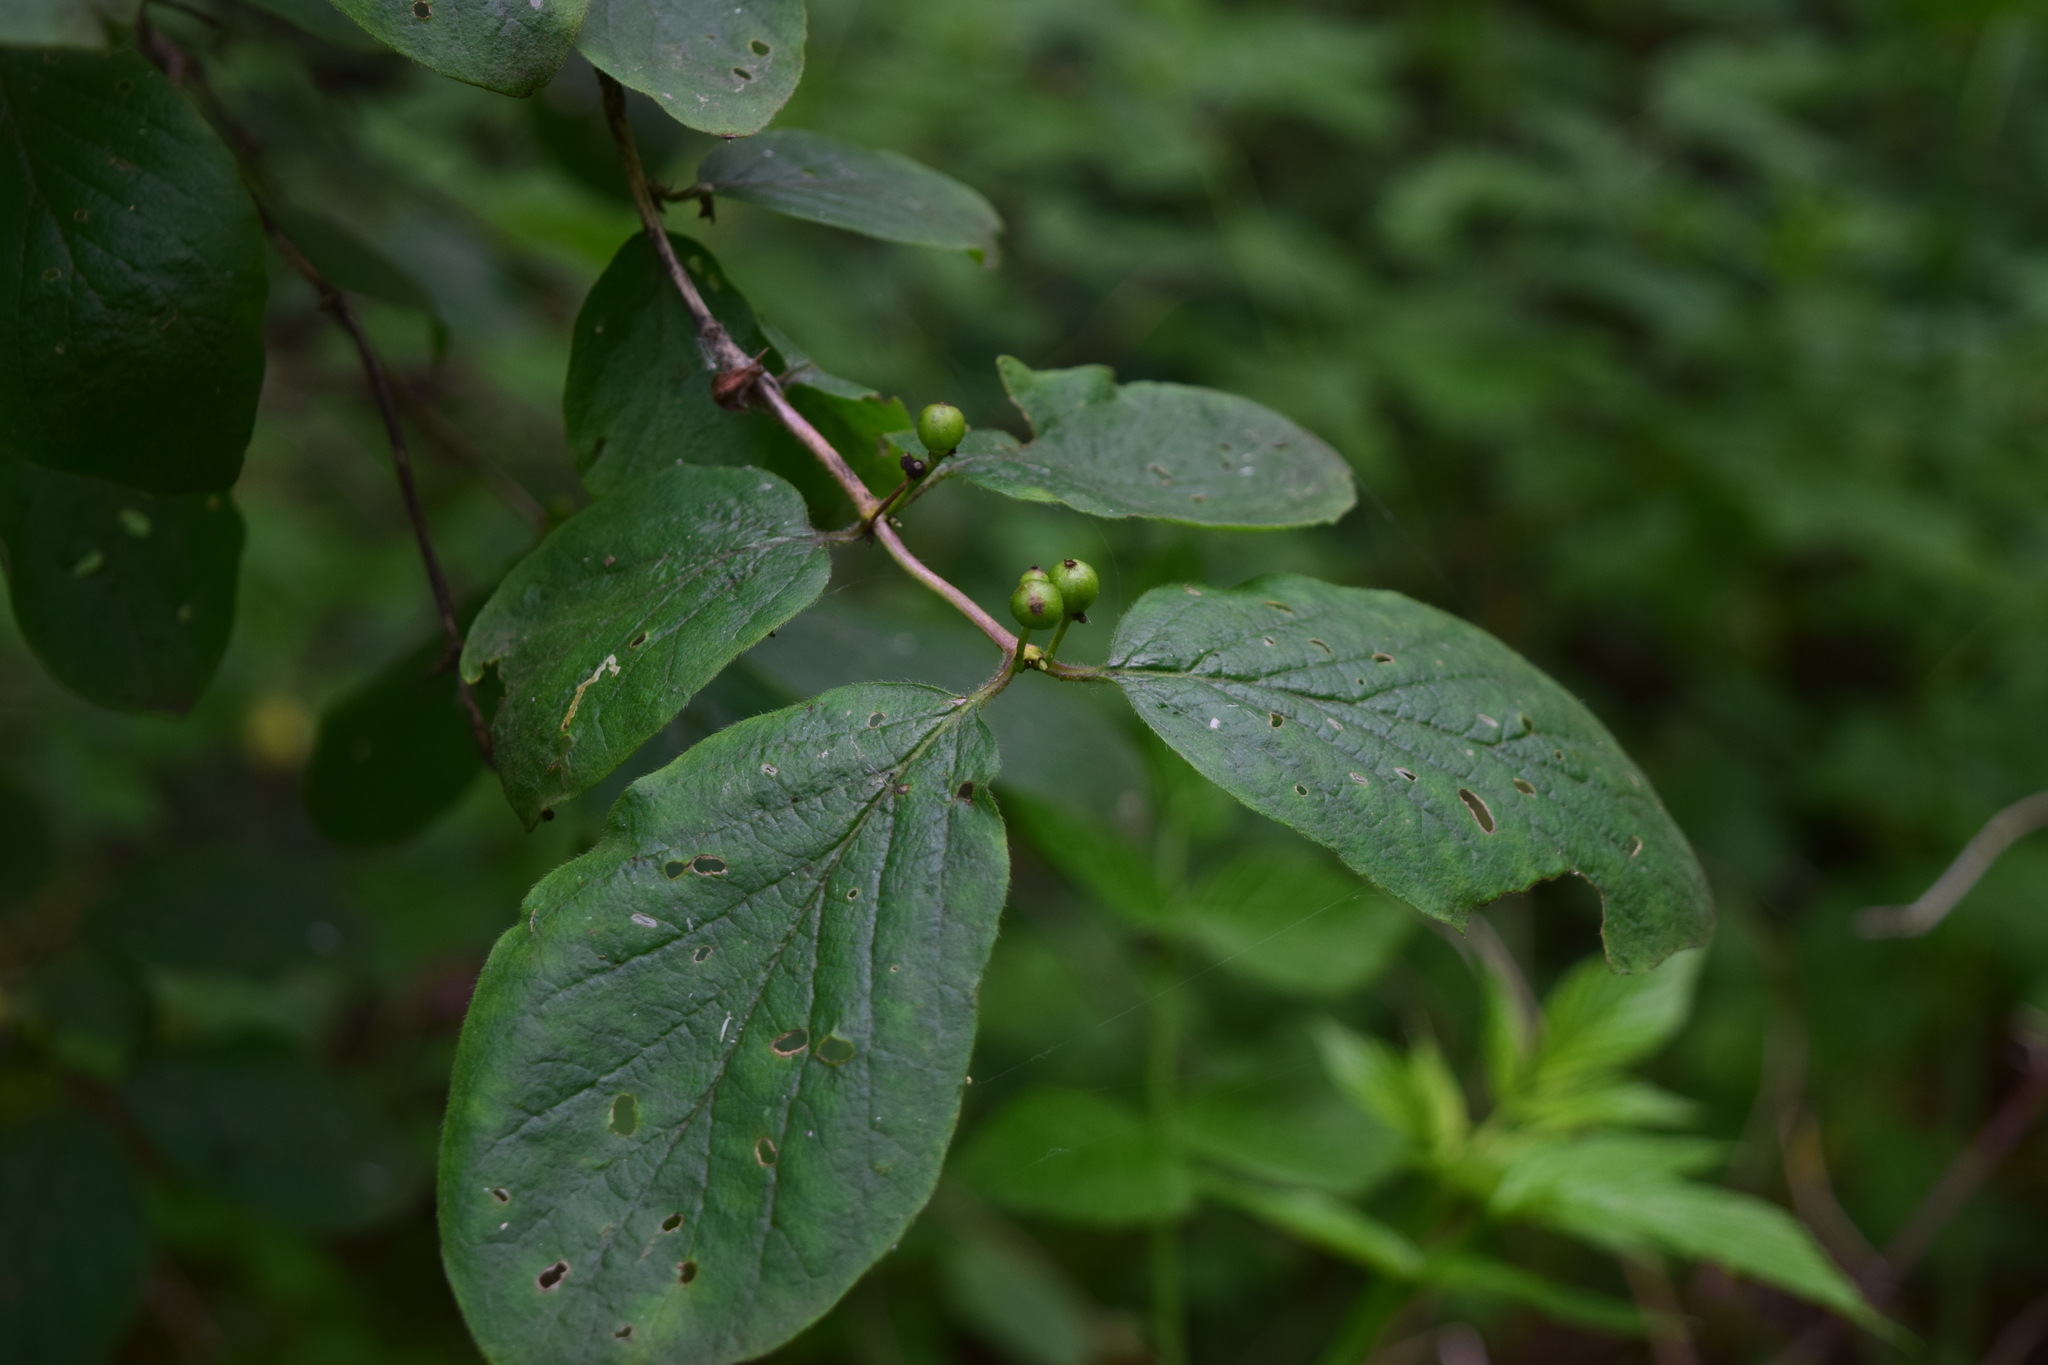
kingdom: Plantae
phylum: Tracheophyta
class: Magnoliopsida
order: Dipsacales
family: Caprifoliaceae
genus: Lonicera
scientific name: Lonicera xylosteum
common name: Fly honeysuckle
